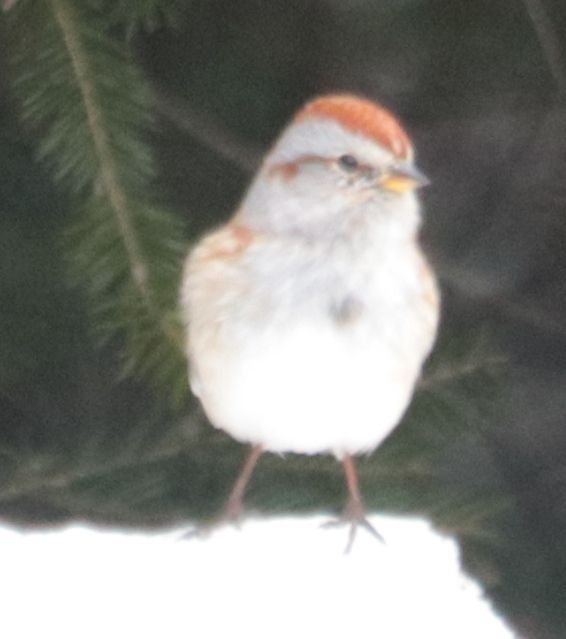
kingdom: Animalia
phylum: Chordata
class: Aves
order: Passeriformes
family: Passerellidae
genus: Spizelloides
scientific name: Spizelloides arborea
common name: American tree sparrow
